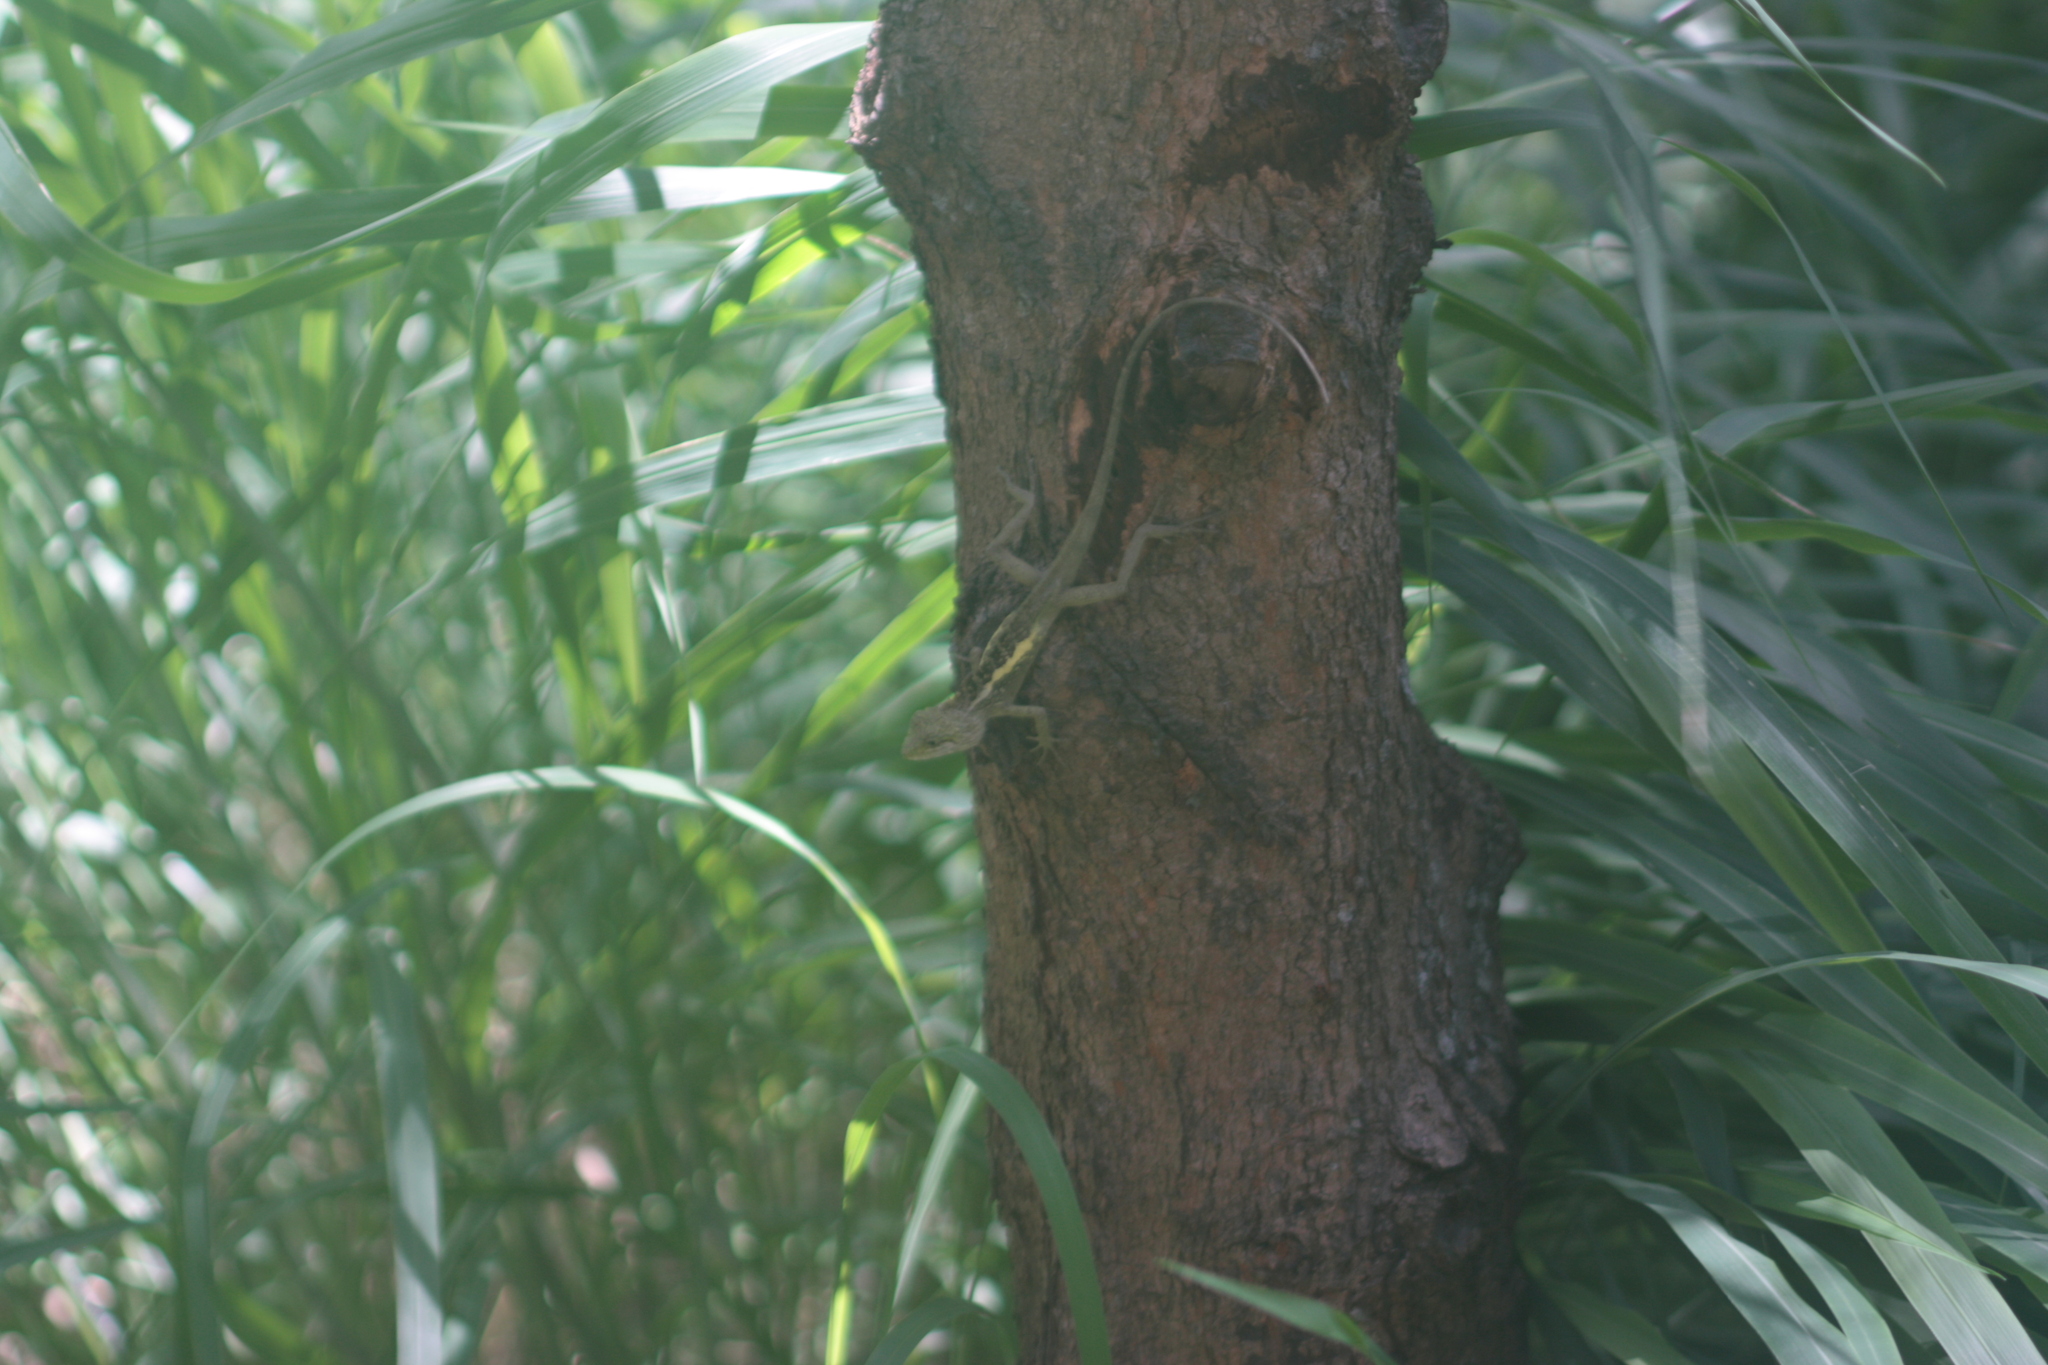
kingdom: Animalia
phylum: Chordata
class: Squamata
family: Agamidae
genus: Diploderma
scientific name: Diploderma swinhonis
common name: Taiwan japalure
